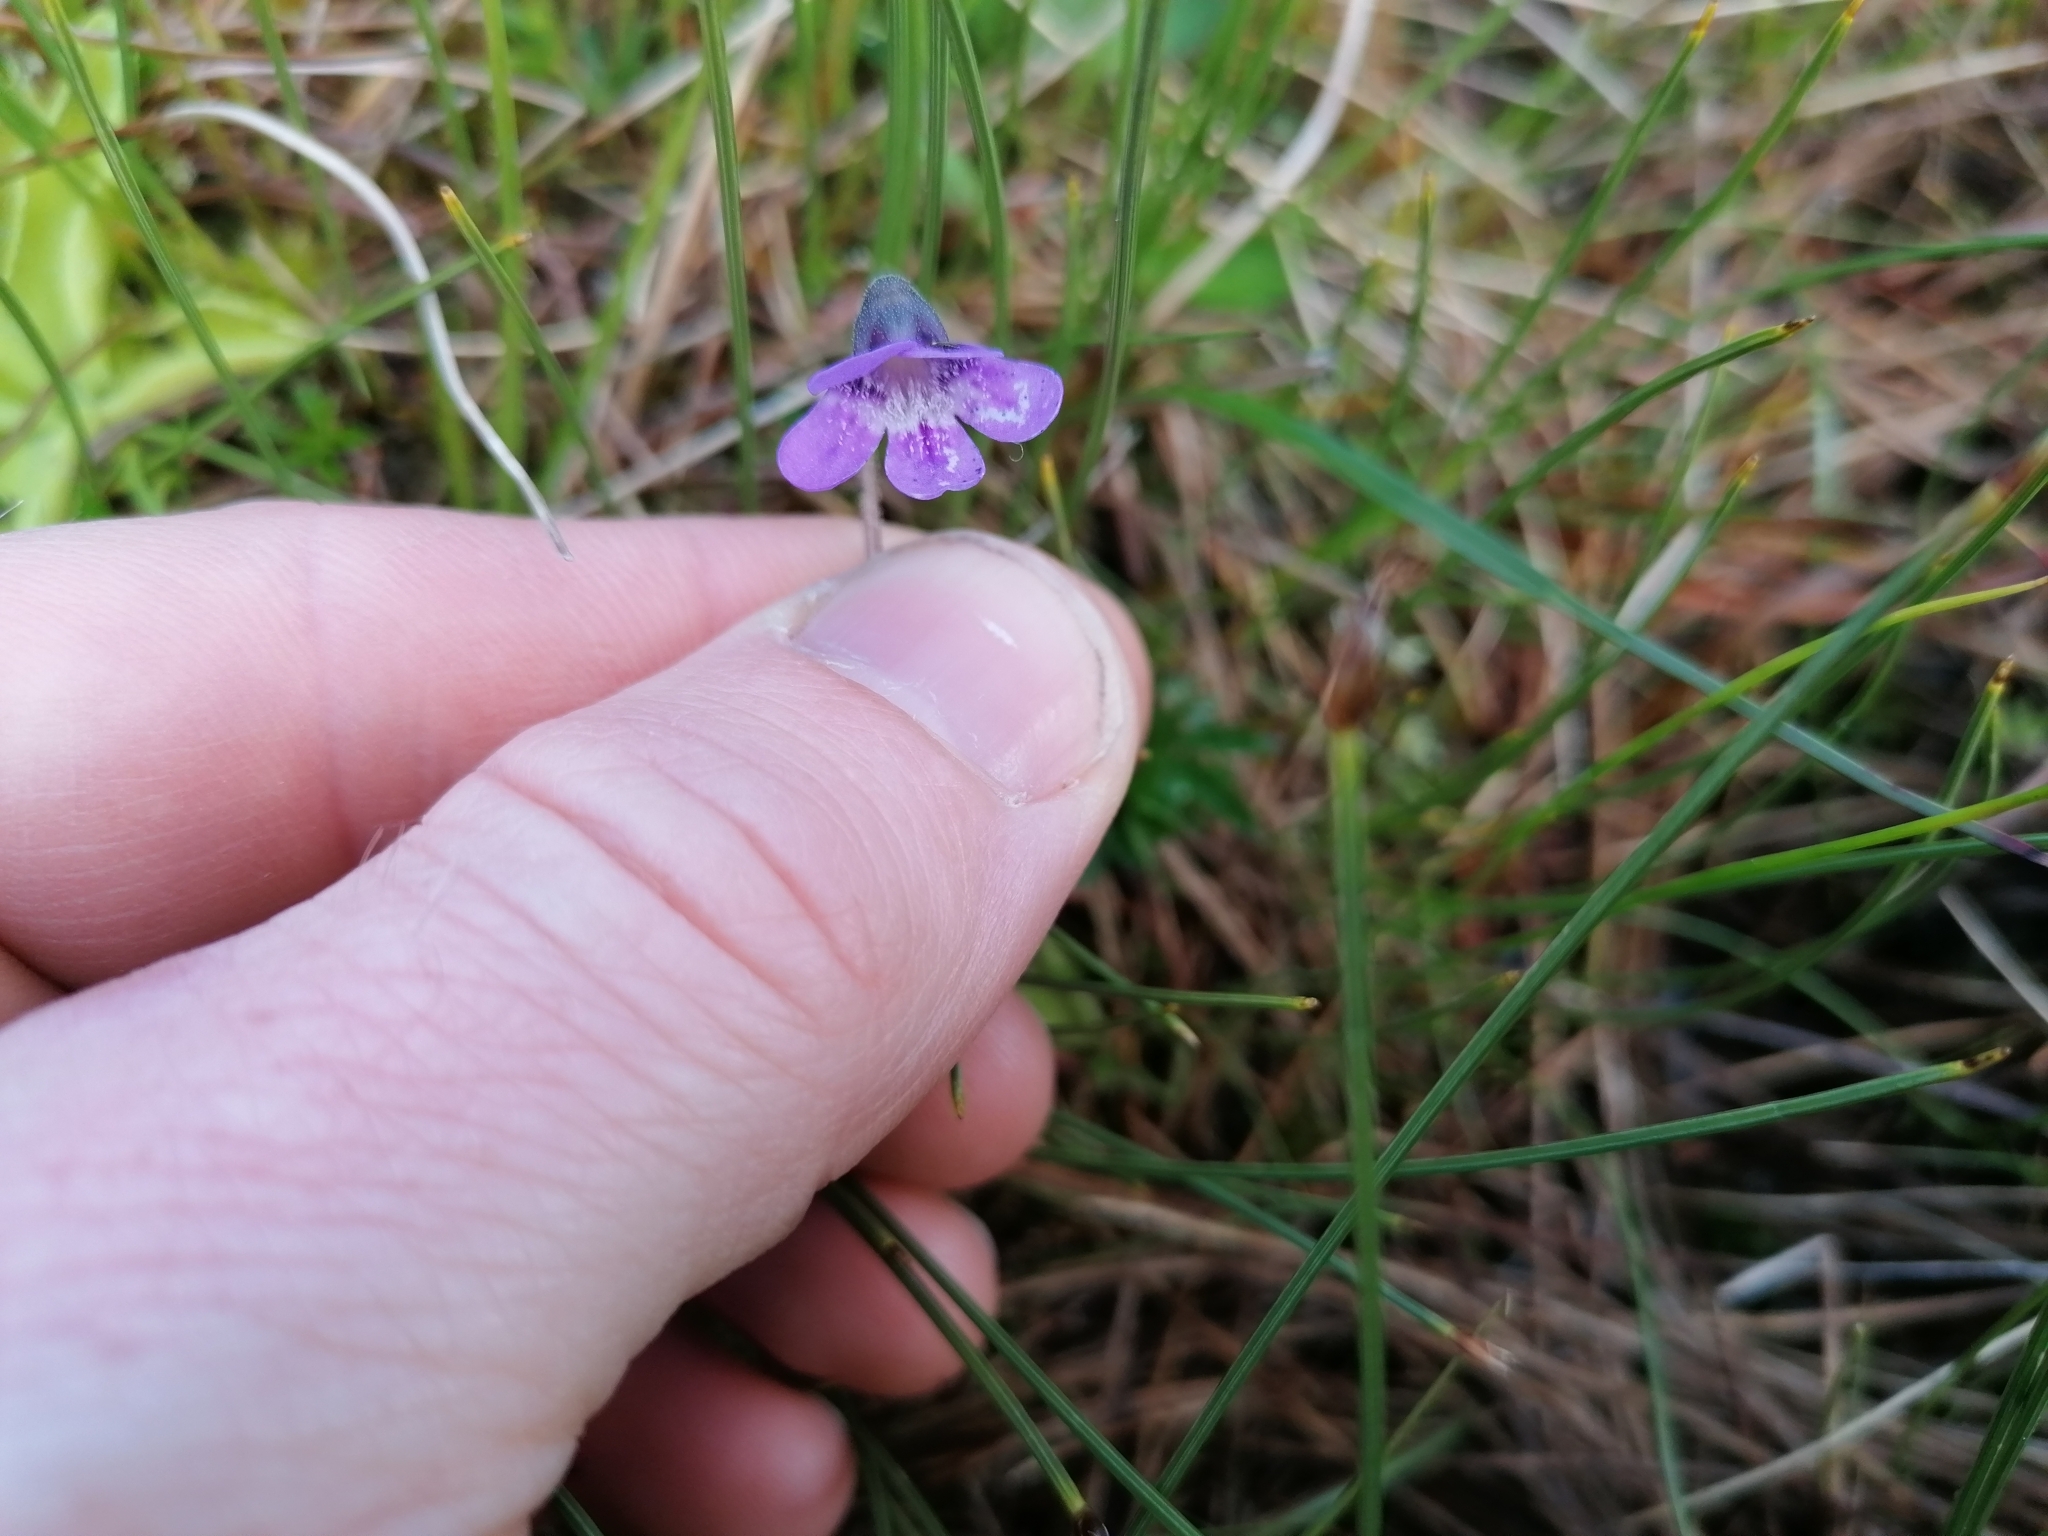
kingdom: Plantae
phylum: Tracheophyta
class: Magnoliopsida
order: Lamiales
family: Lentibulariaceae
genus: Pinguicula
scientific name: Pinguicula vulgaris
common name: Common butterwort
